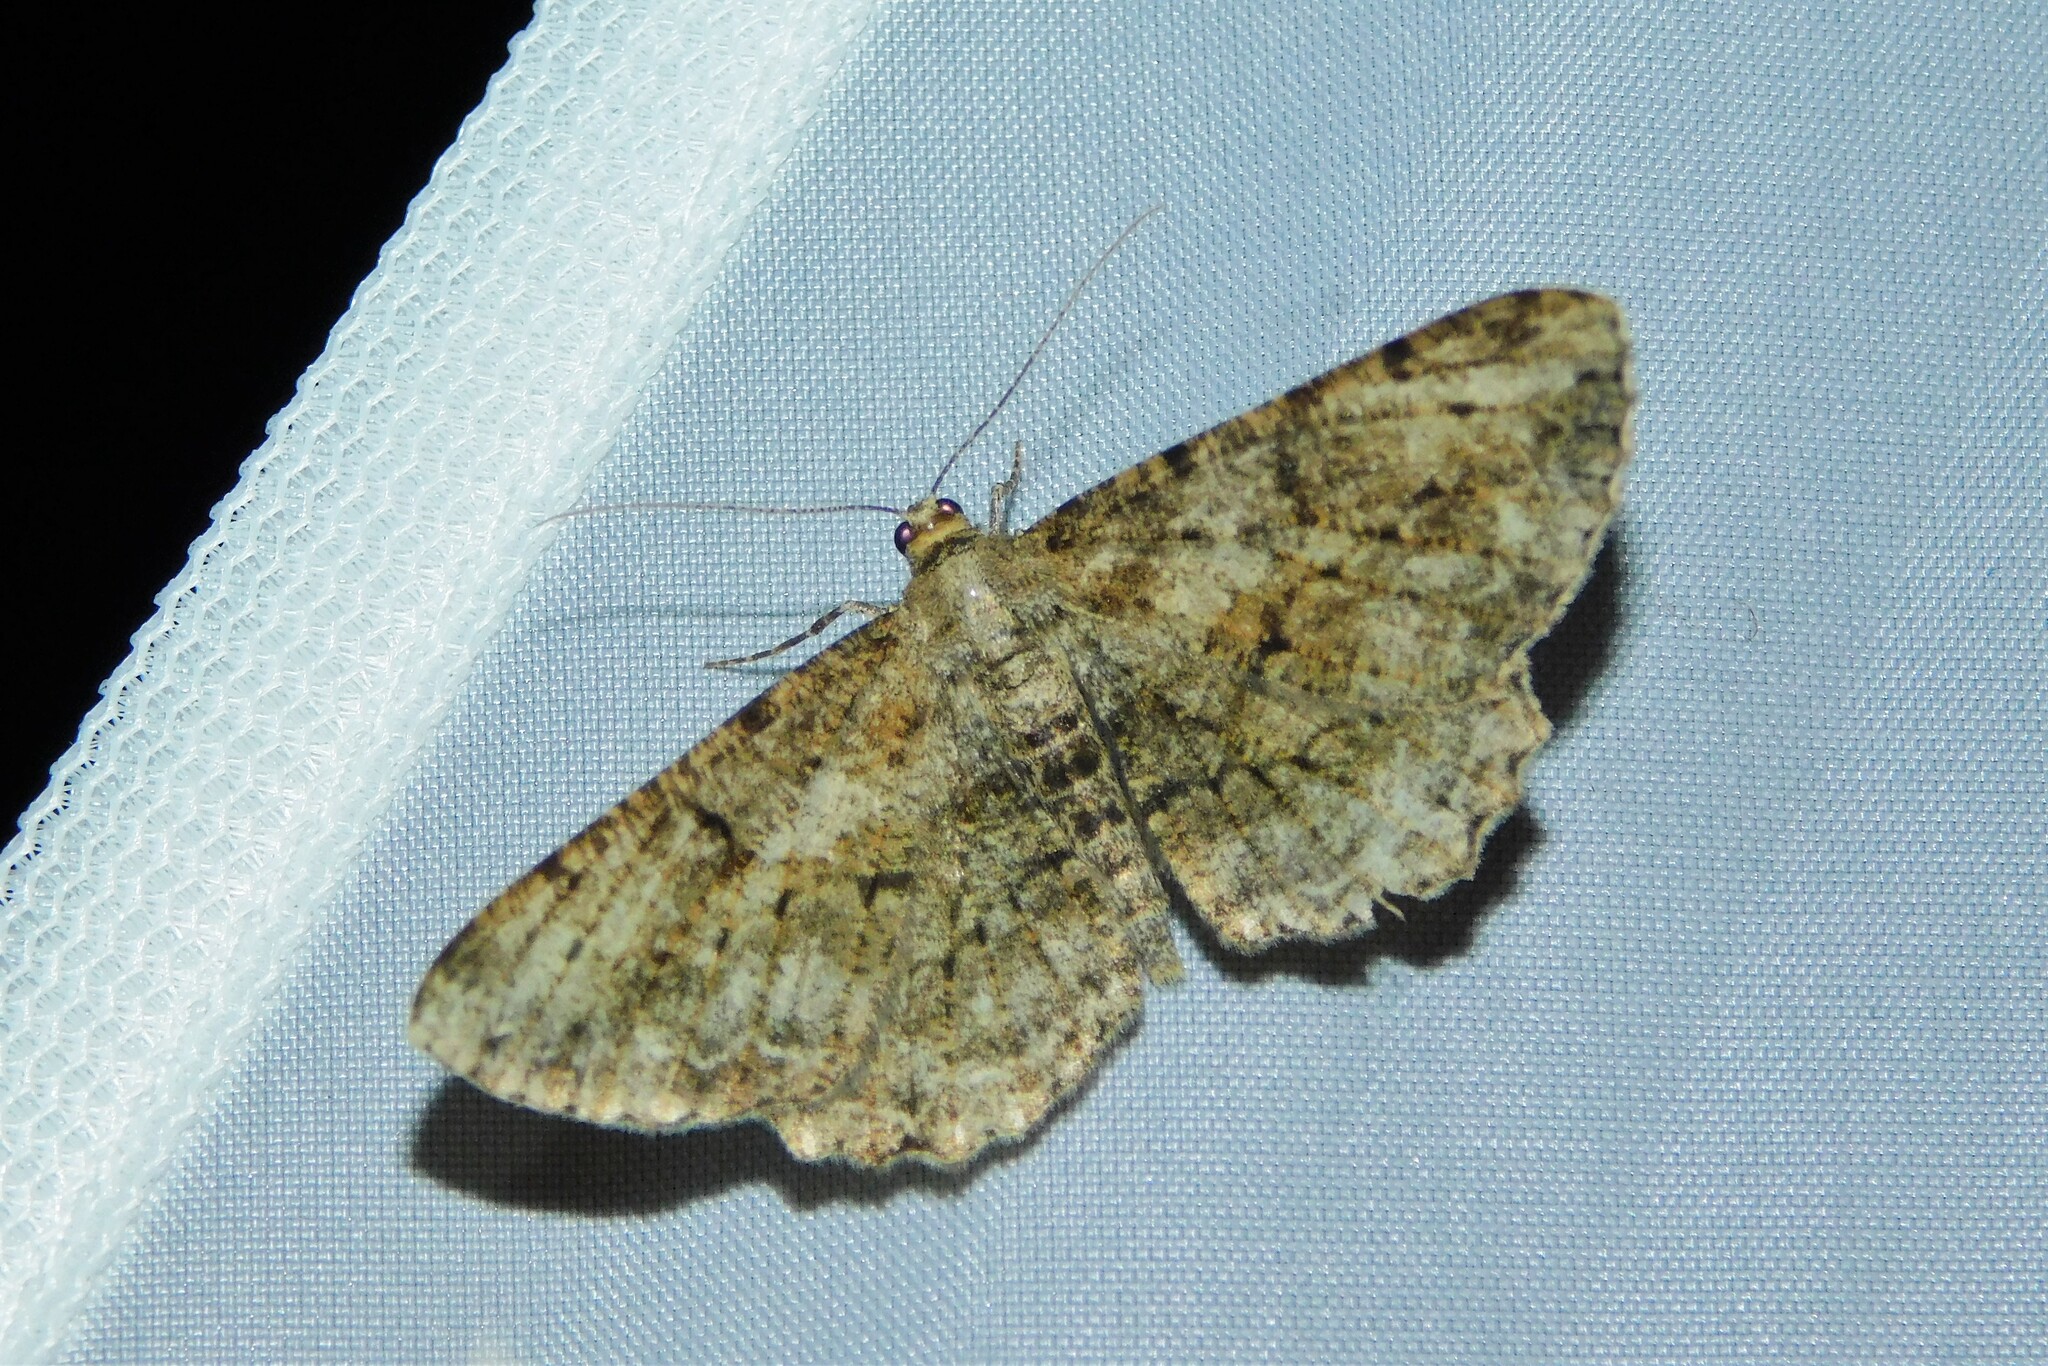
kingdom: Animalia
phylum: Arthropoda
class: Insecta
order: Lepidoptera
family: Geometridae
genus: Peribatodes
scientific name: Peribatodes rhomboidaria
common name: Willow beauty
